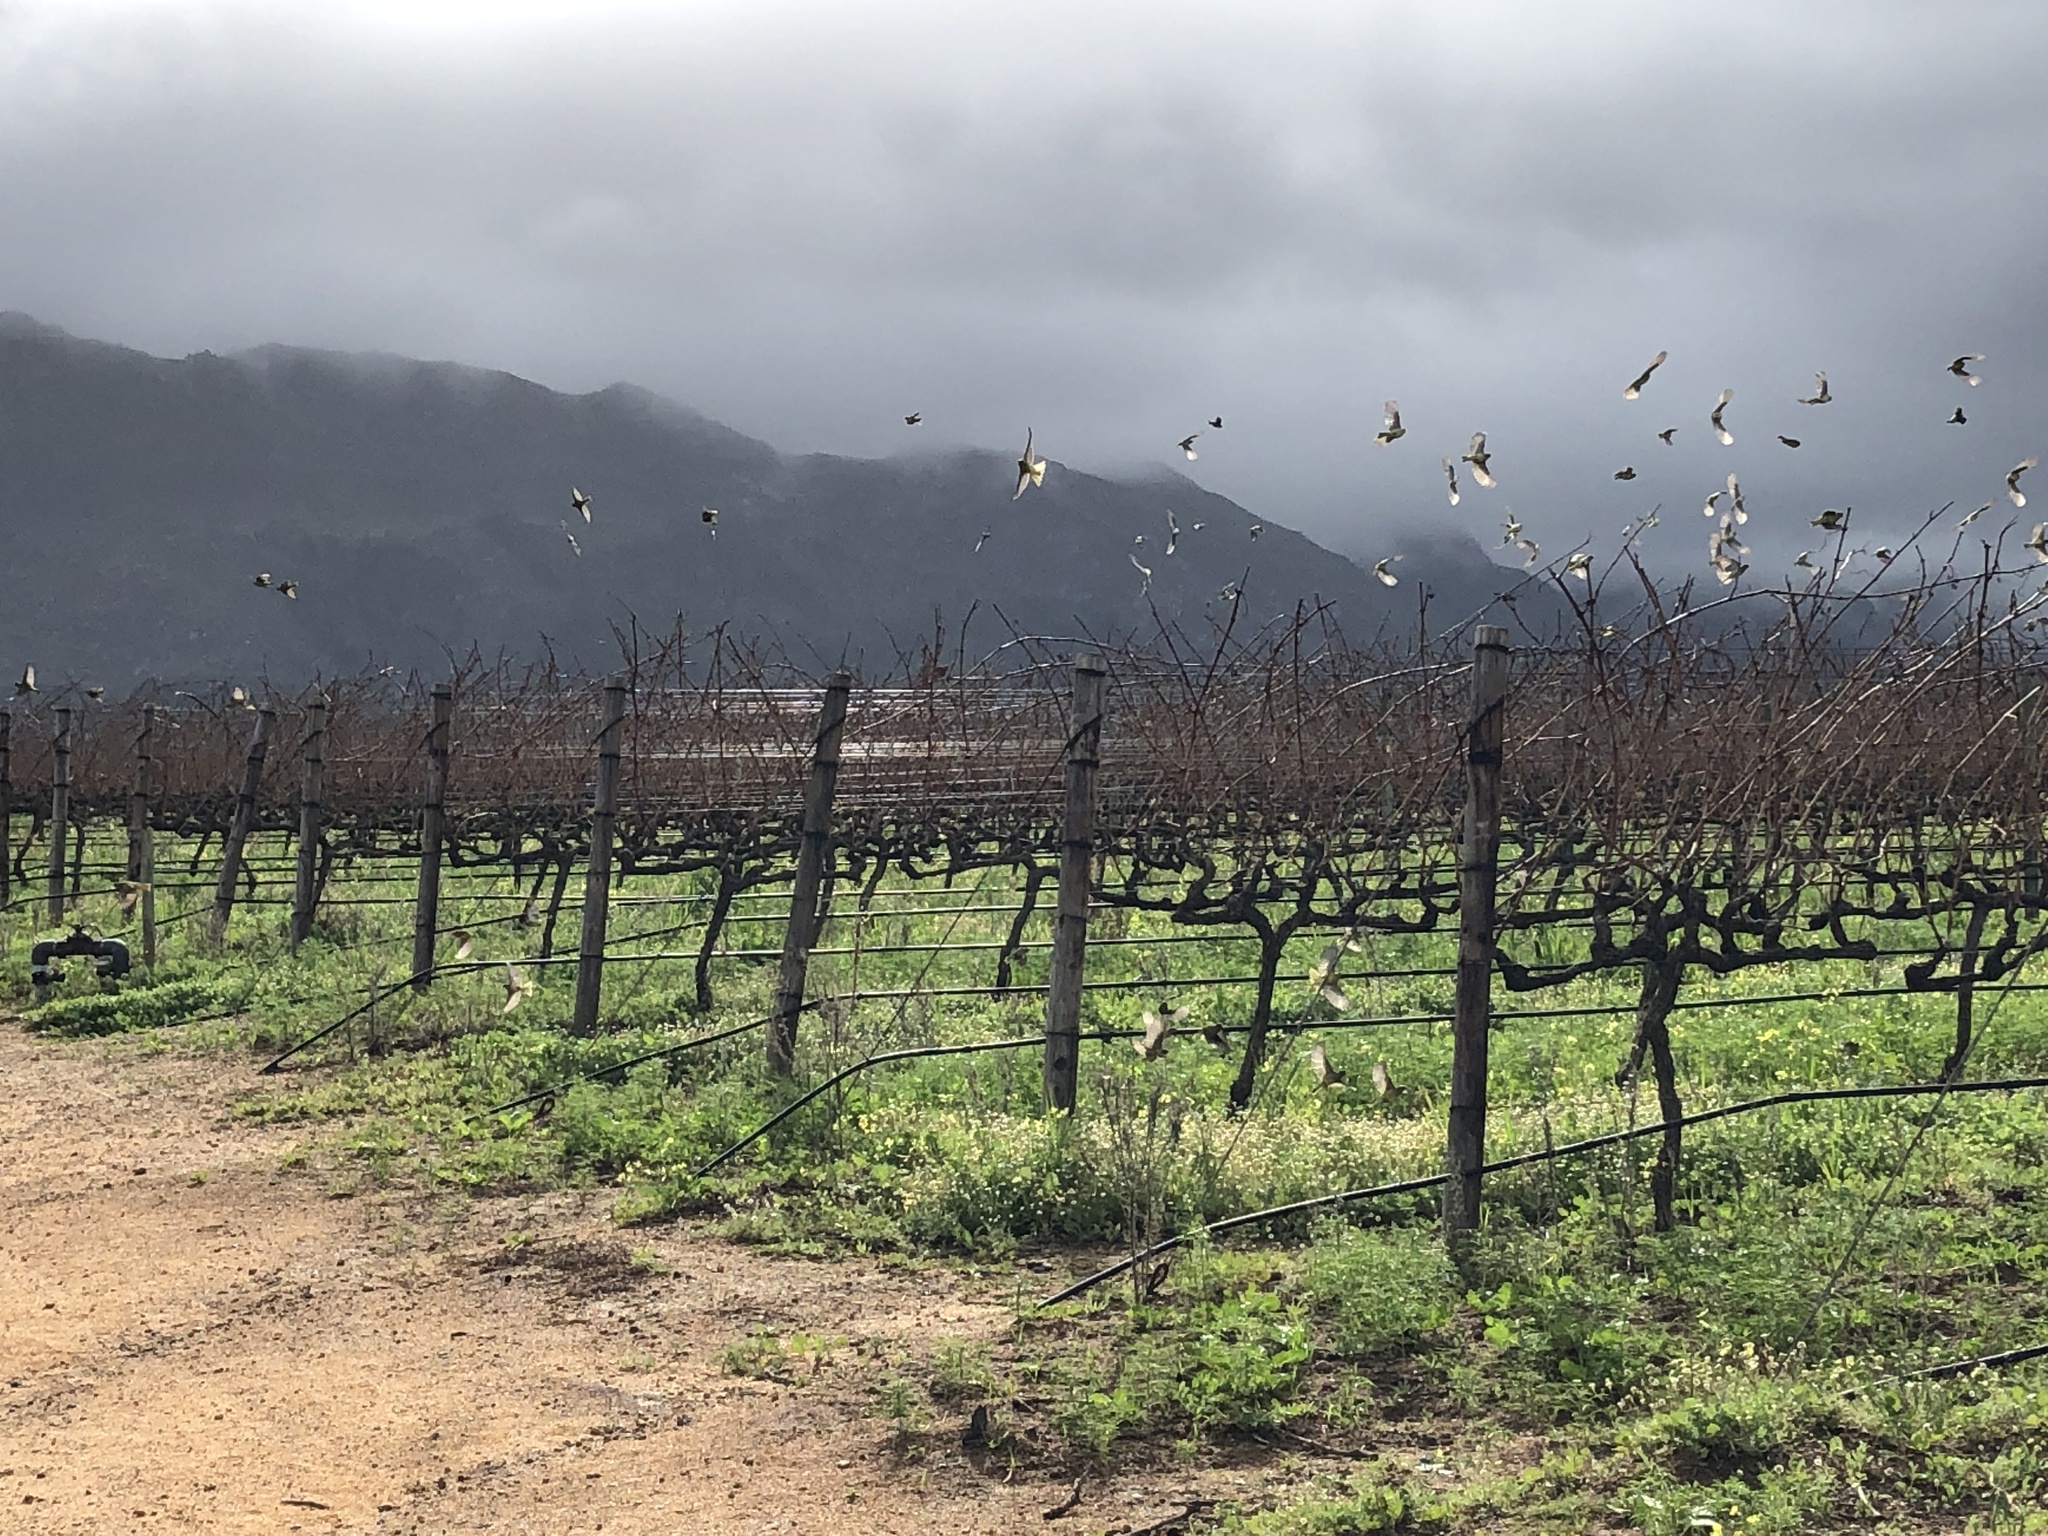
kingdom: Animalia
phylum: Chordata
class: Aves
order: Passeriformes
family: Fringillidae
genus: Serinus
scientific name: Serinus canicollis
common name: Cape canary
